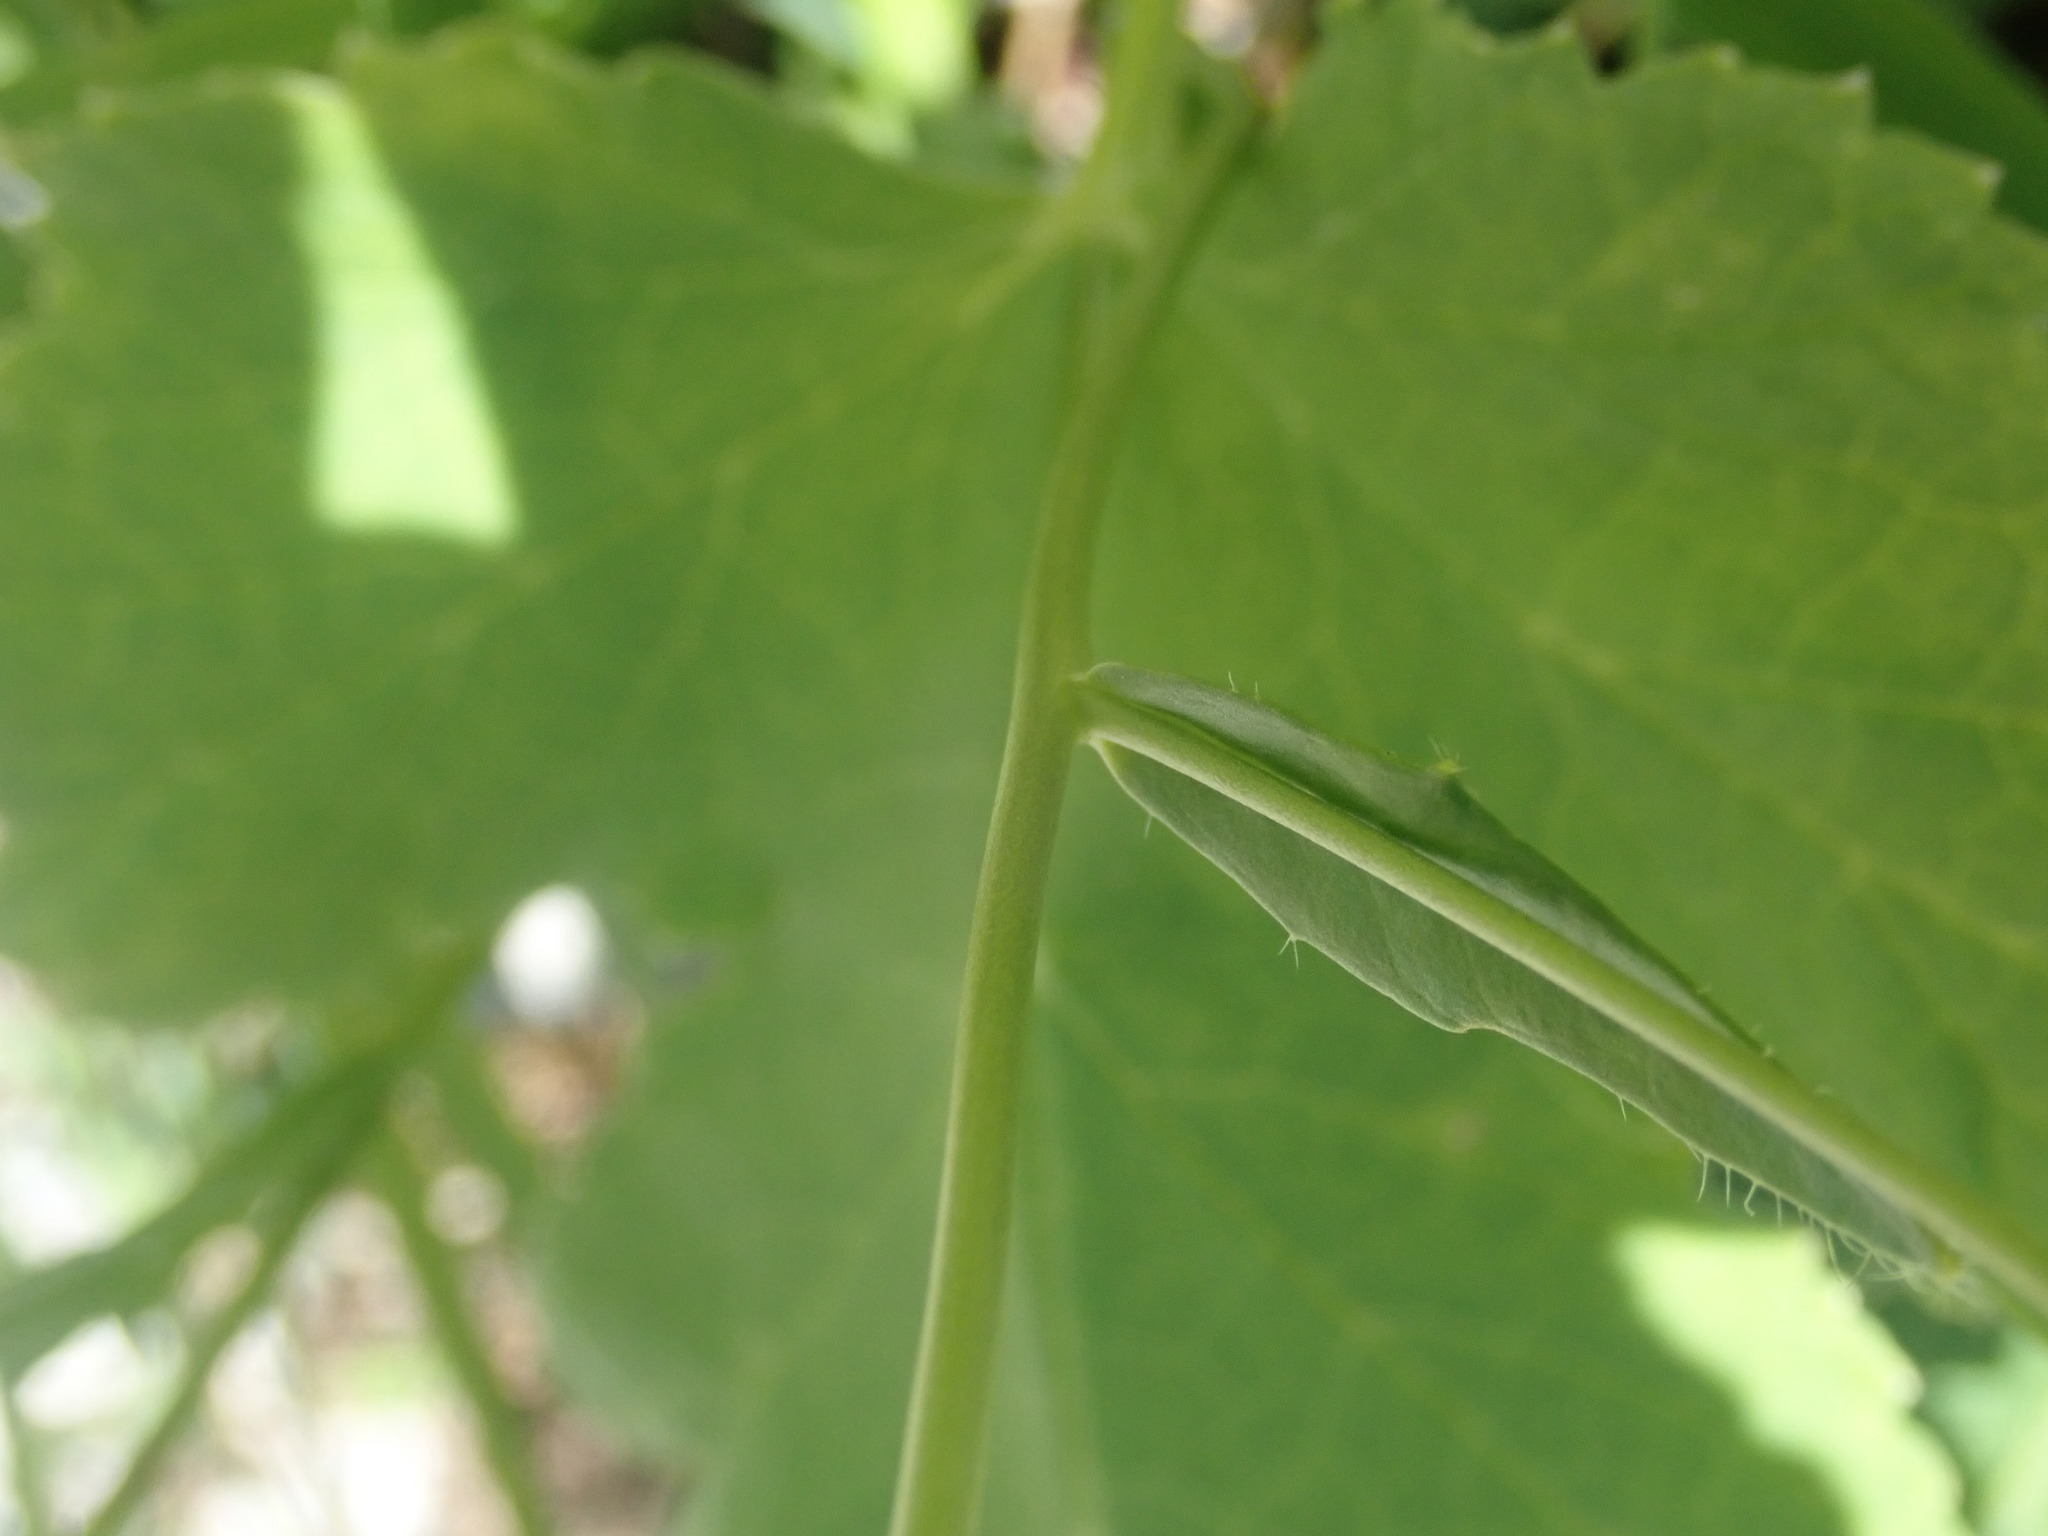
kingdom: Plantae
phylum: Tracheophyta
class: Magnoliopsida
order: Brassicales
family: Brassicaceae
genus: Biscutella
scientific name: Biscutella laevigata
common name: Buckler mustard
